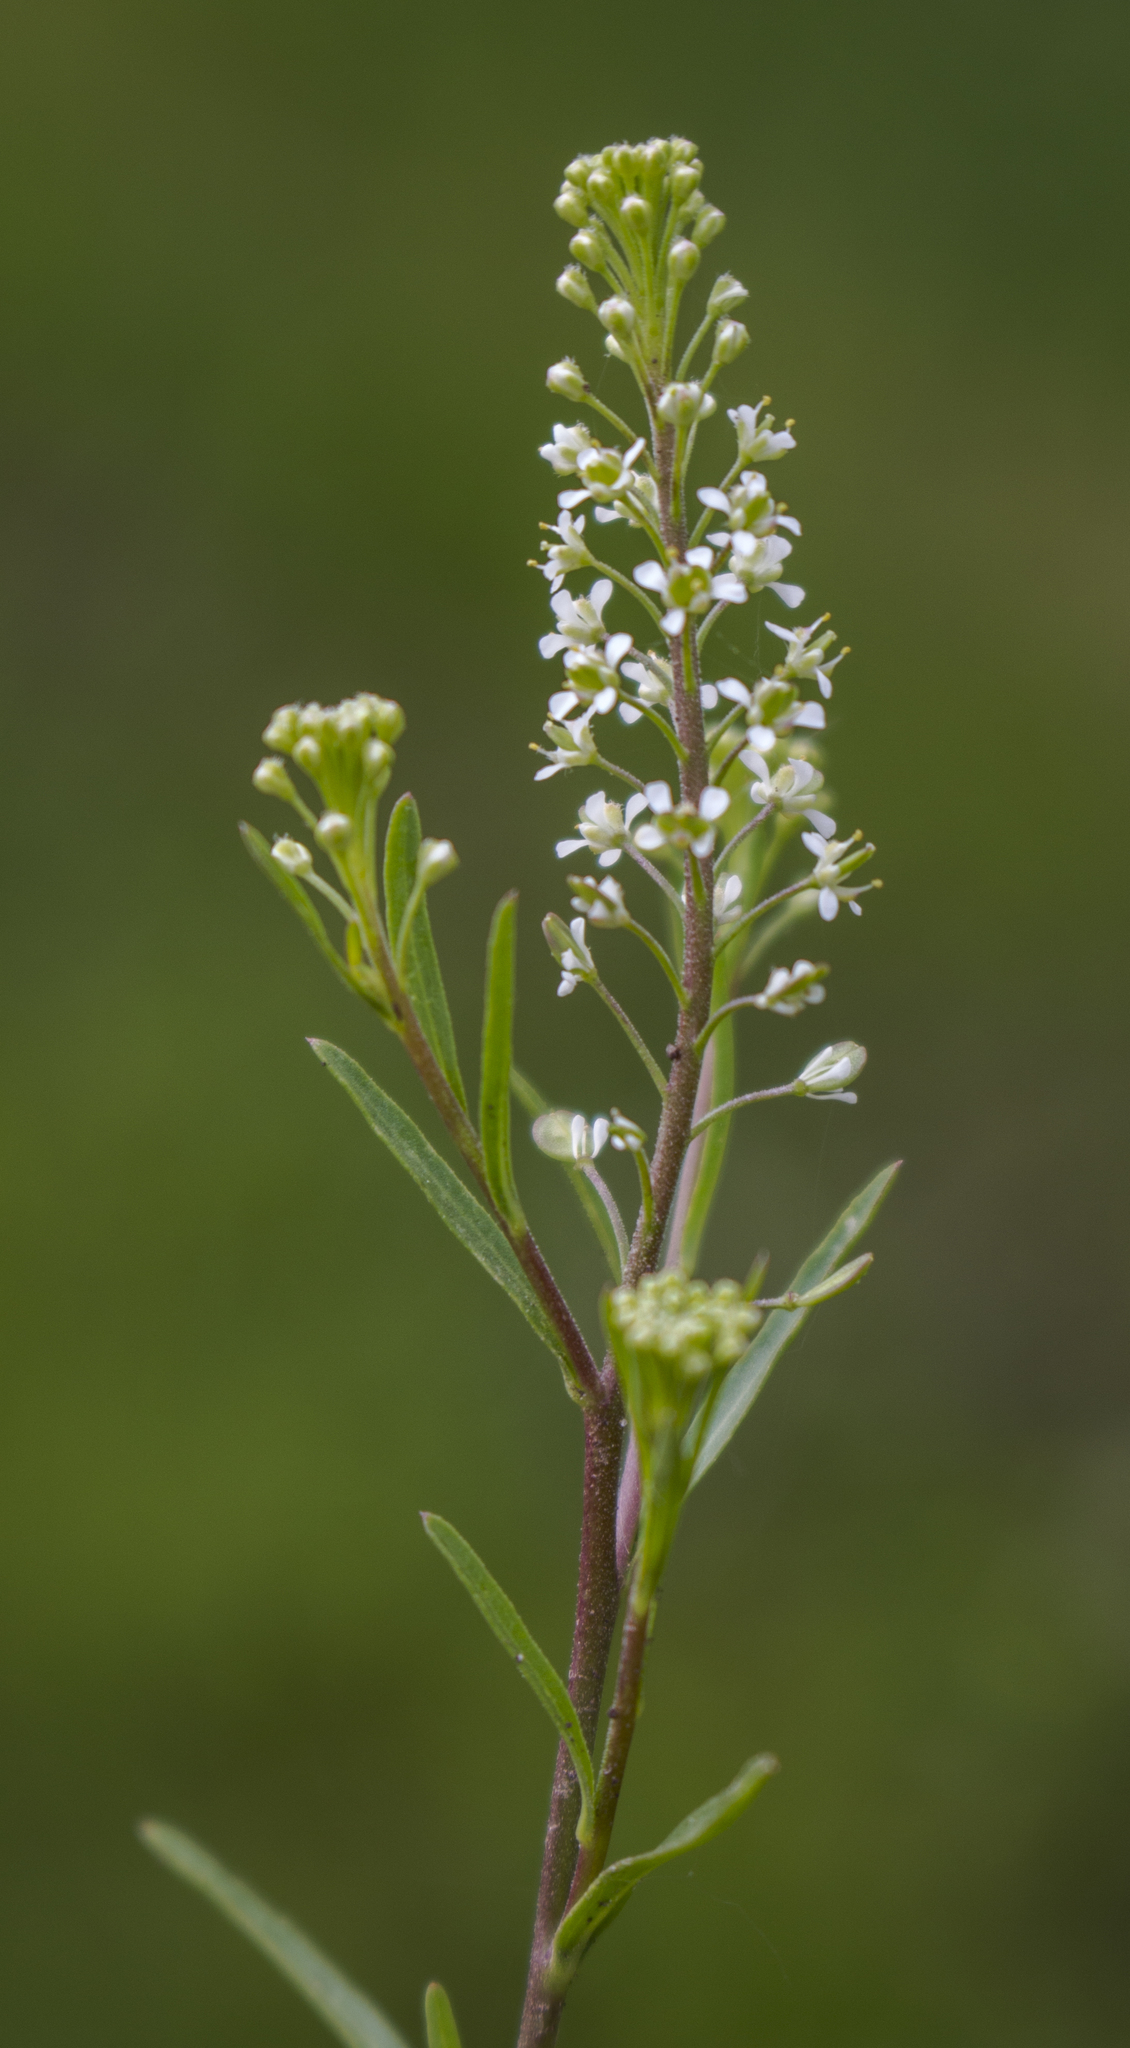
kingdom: Plantae
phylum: Tracheophyta
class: Magnoliopsida
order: Brassicales
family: Brassicaceae
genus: Lepidium
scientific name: Lepidium virginicum
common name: Least pepperwort
